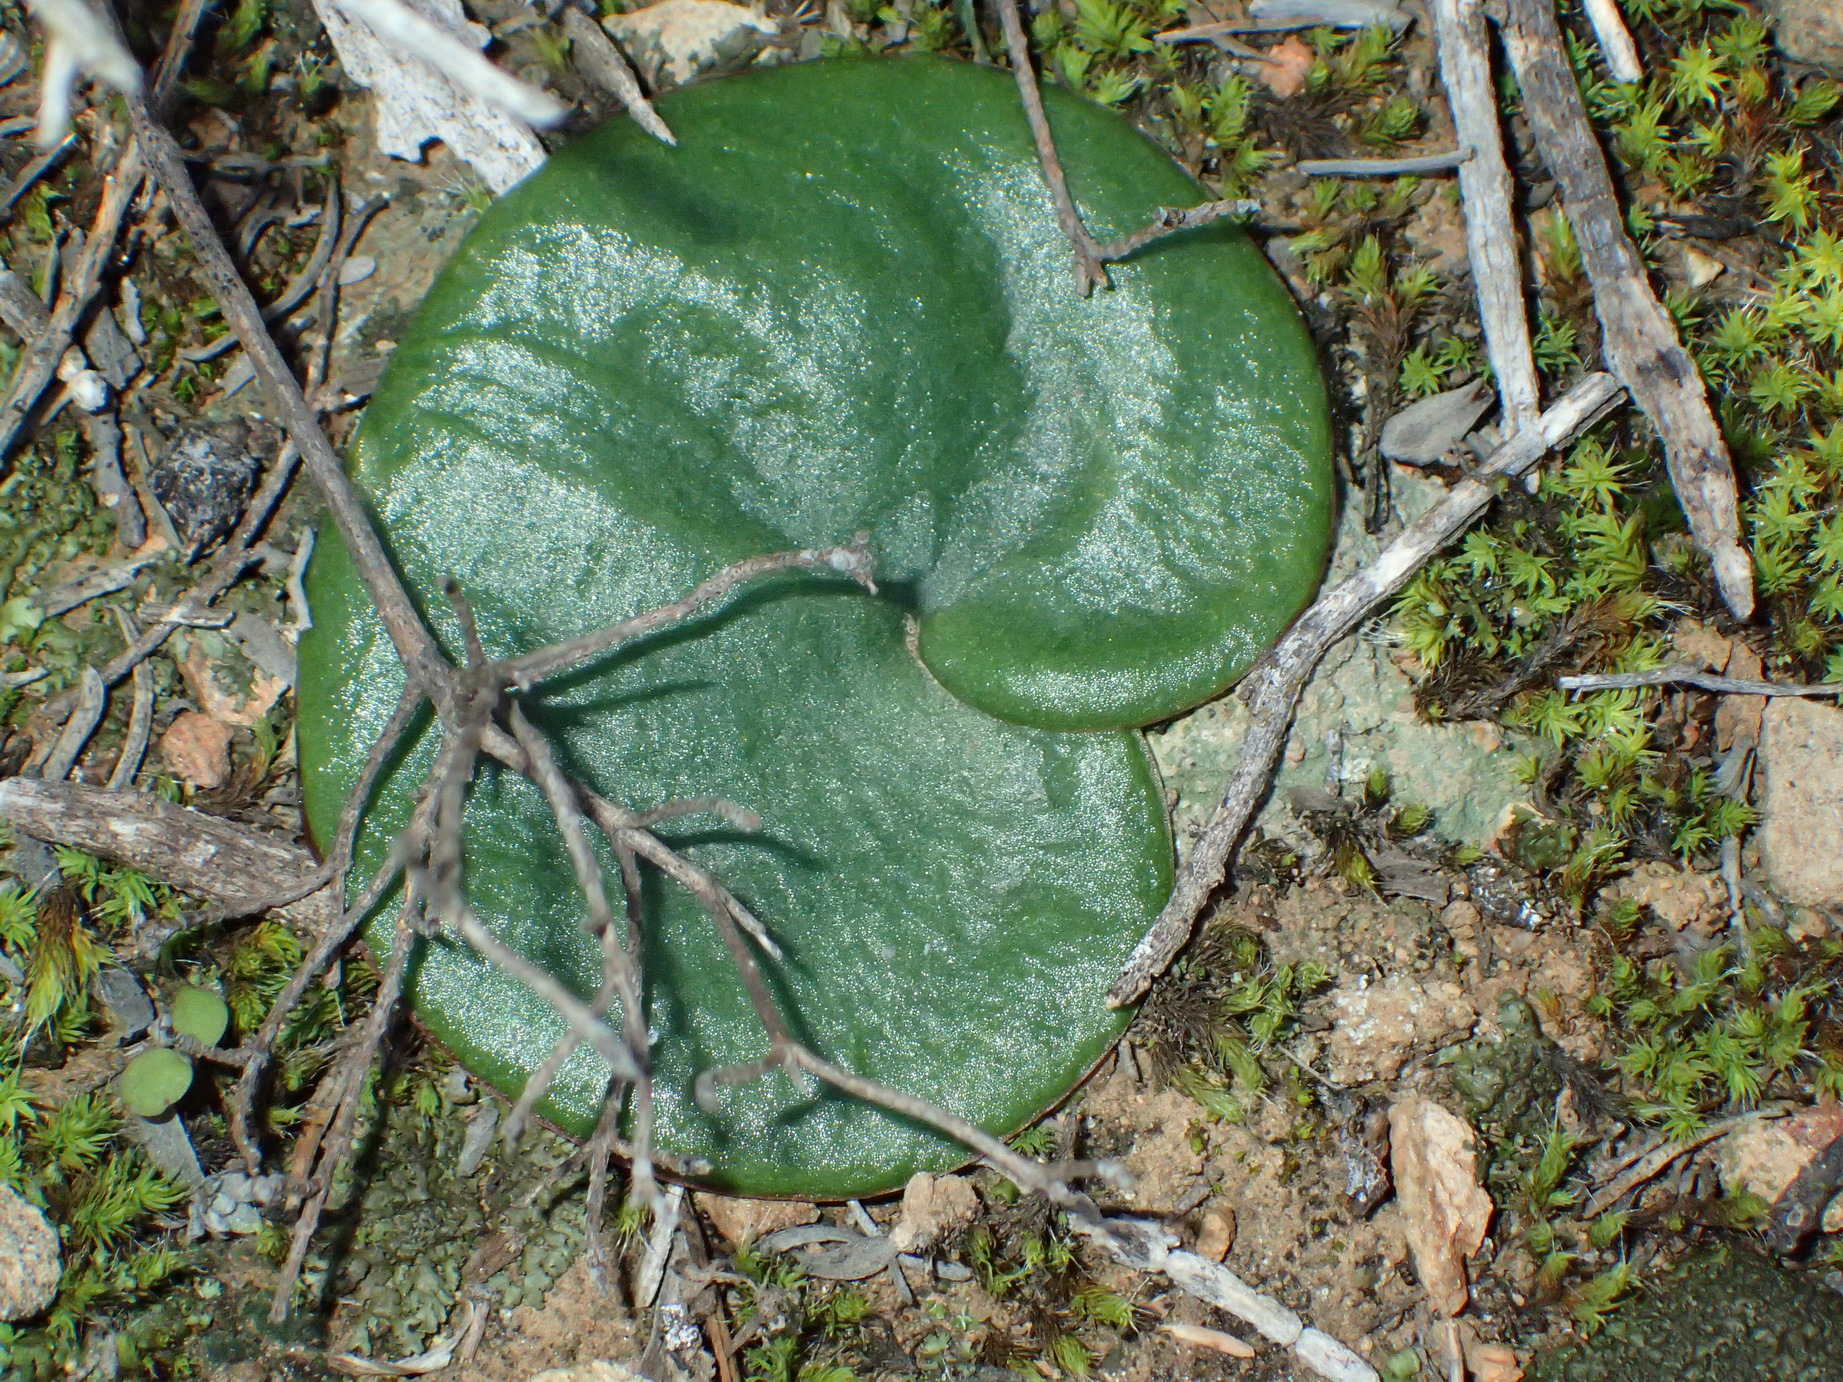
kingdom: Plantae
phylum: Tracheophyta
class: Liliopsida
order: Asparagales
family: Asparagaceae
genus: Eriospermum
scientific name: Eriospermum zeyheri
